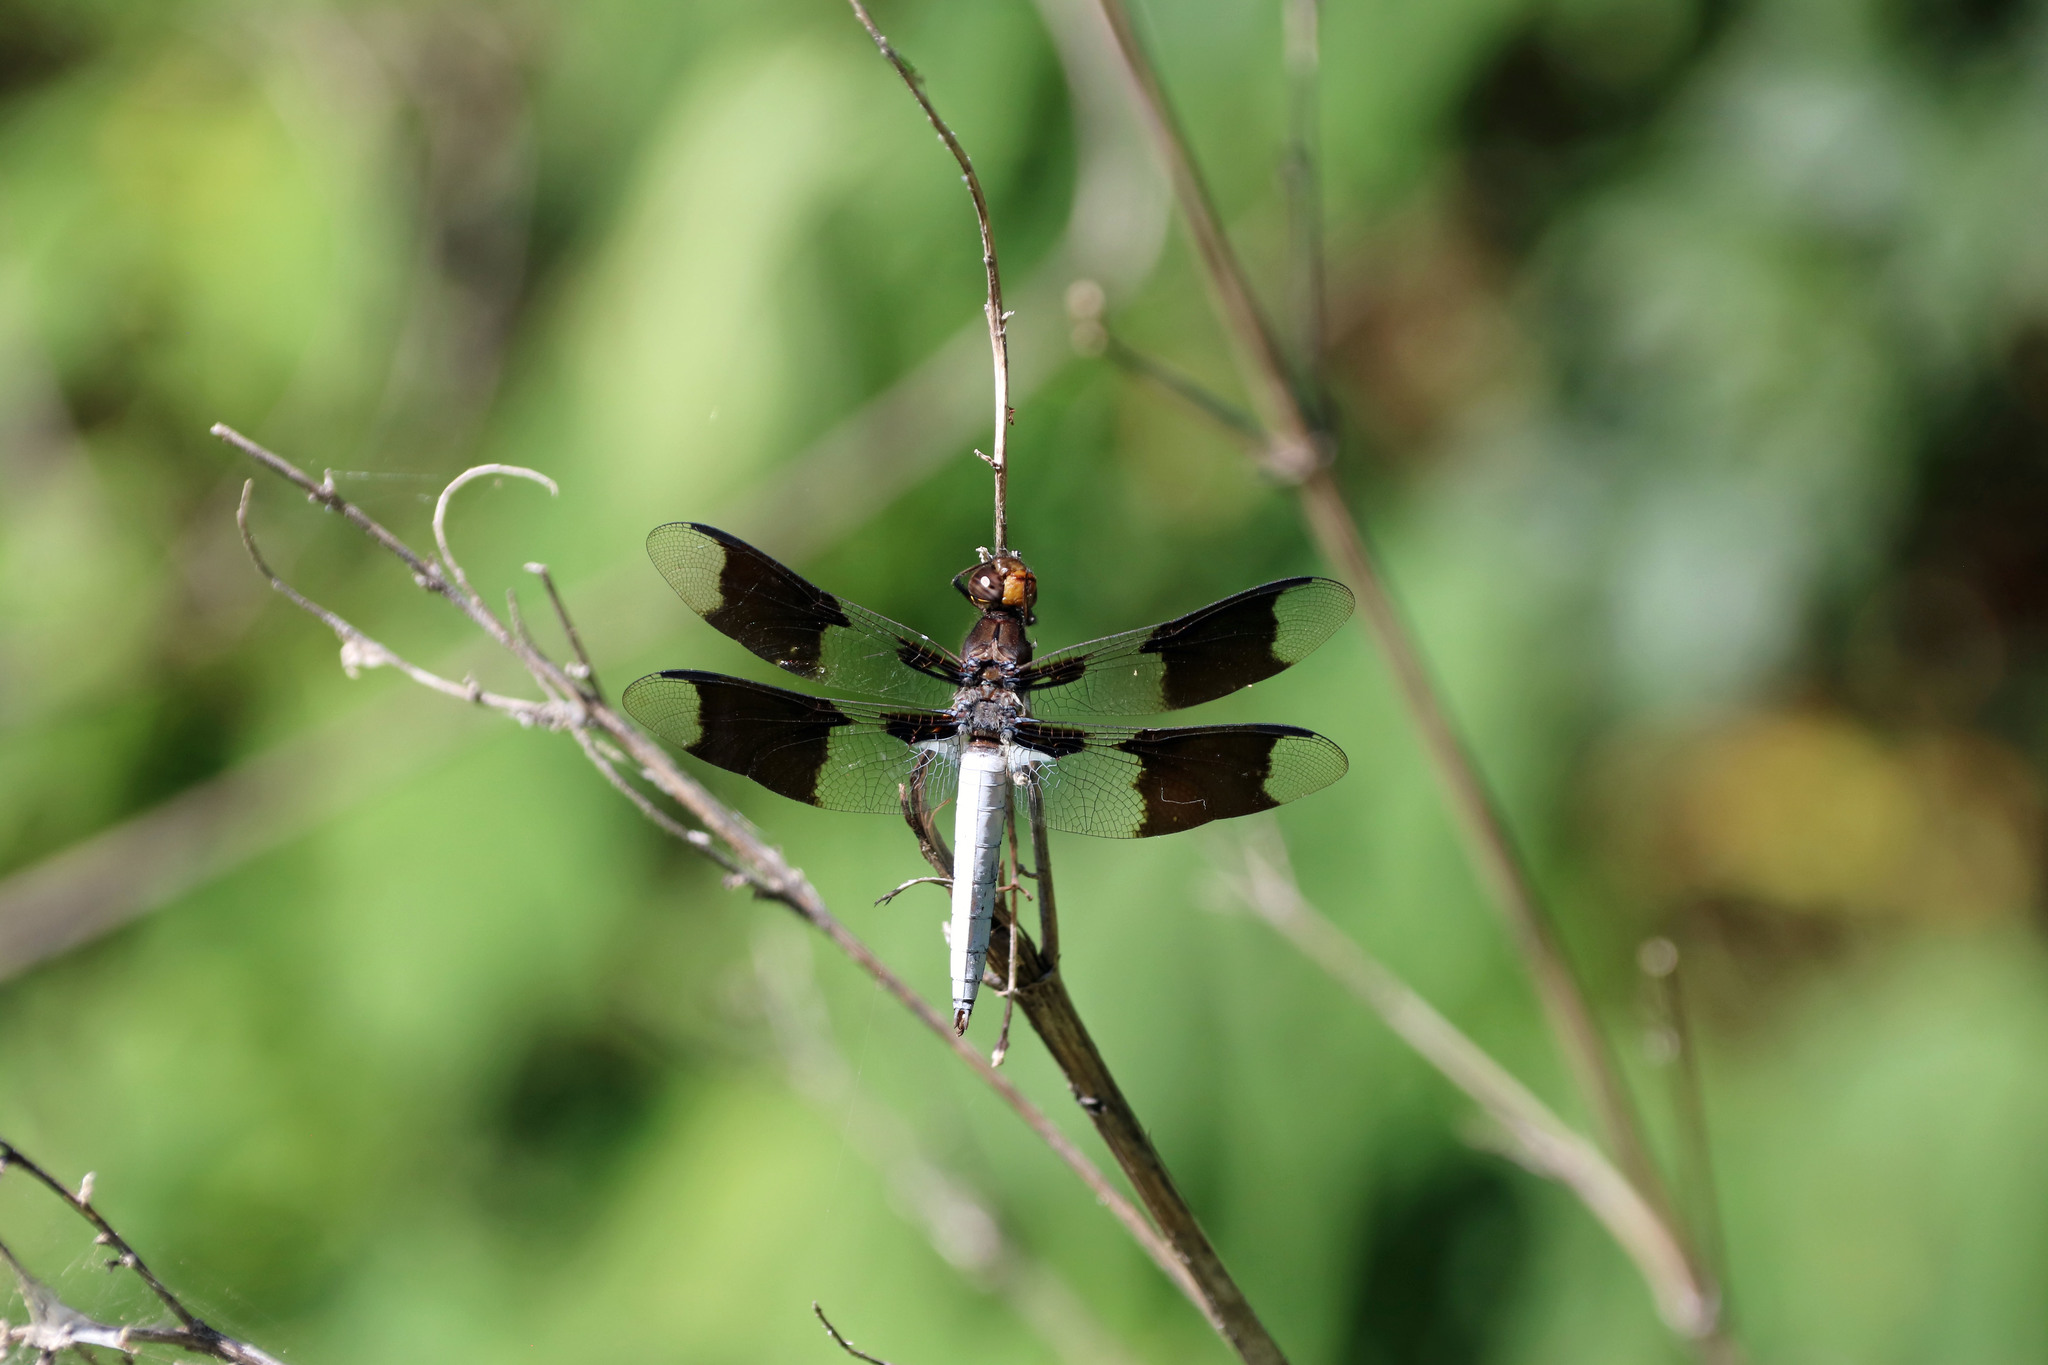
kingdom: Animalia
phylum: Arthropoda
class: Insecta
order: Odonata
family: Libellulidae
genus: Plathemis
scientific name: Plathemis lydia
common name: Common whitetail
